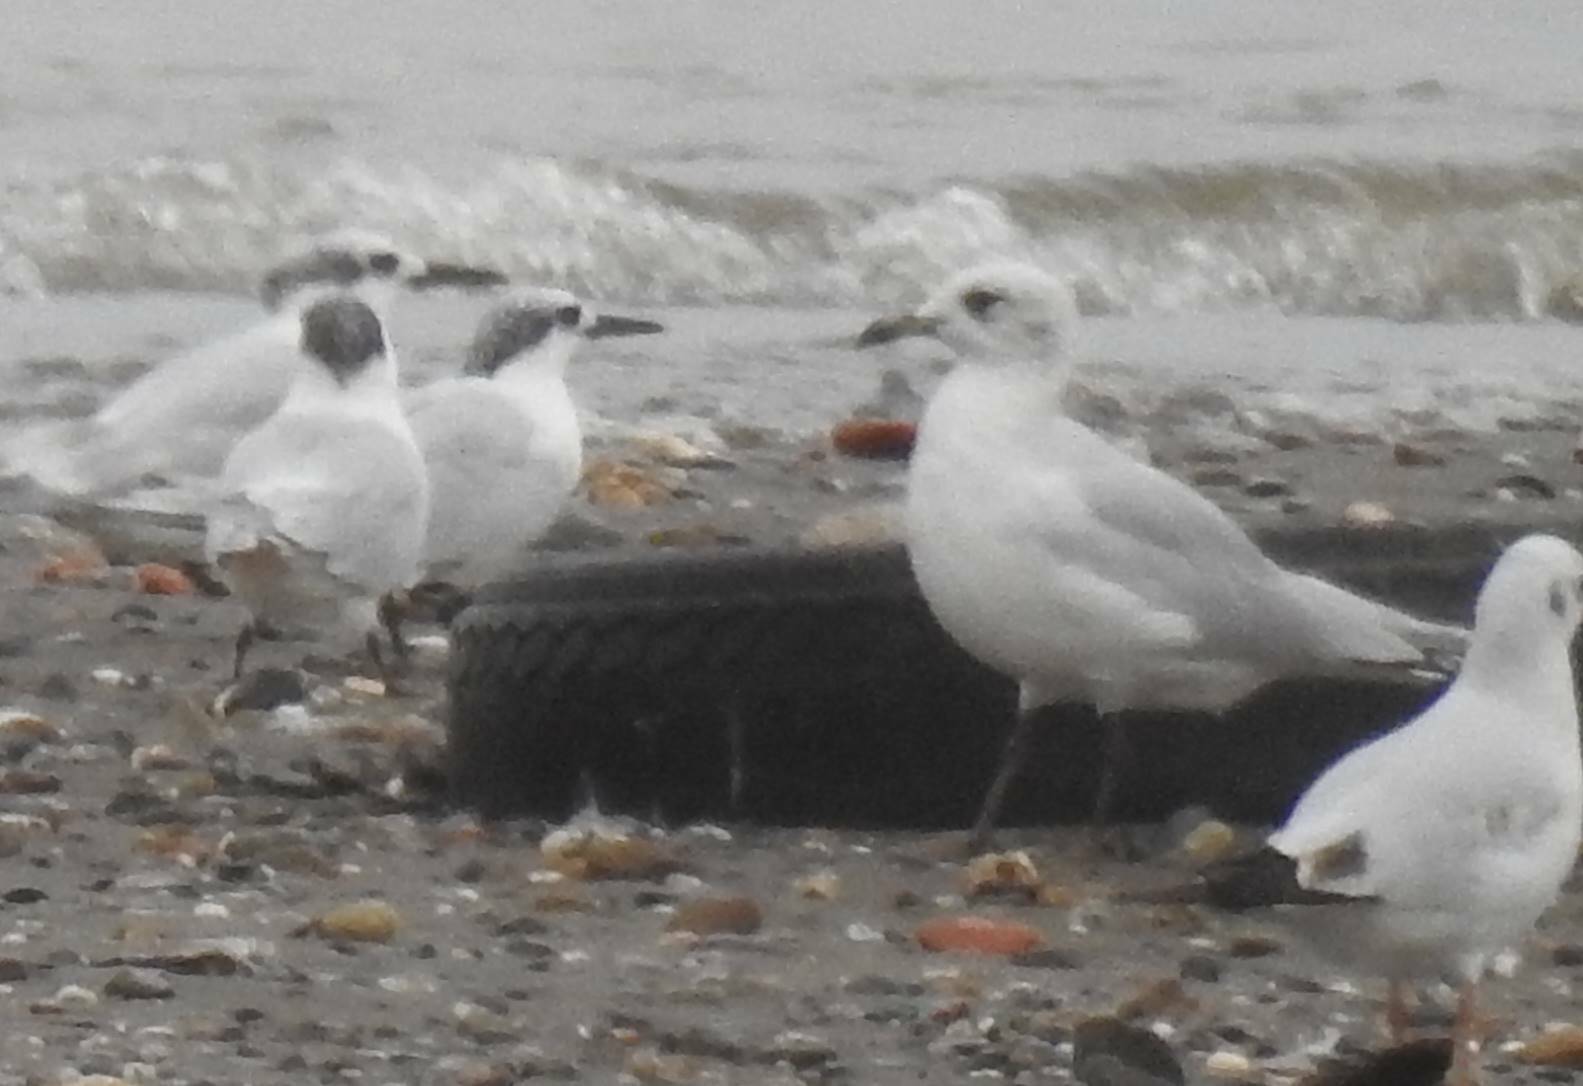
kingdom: Animalia
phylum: Chordata
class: Aves
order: Charadriiformes
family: Laridae
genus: Ichthyaetus
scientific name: Ichthyaetus melanocephalus
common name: Mediterranean gull
